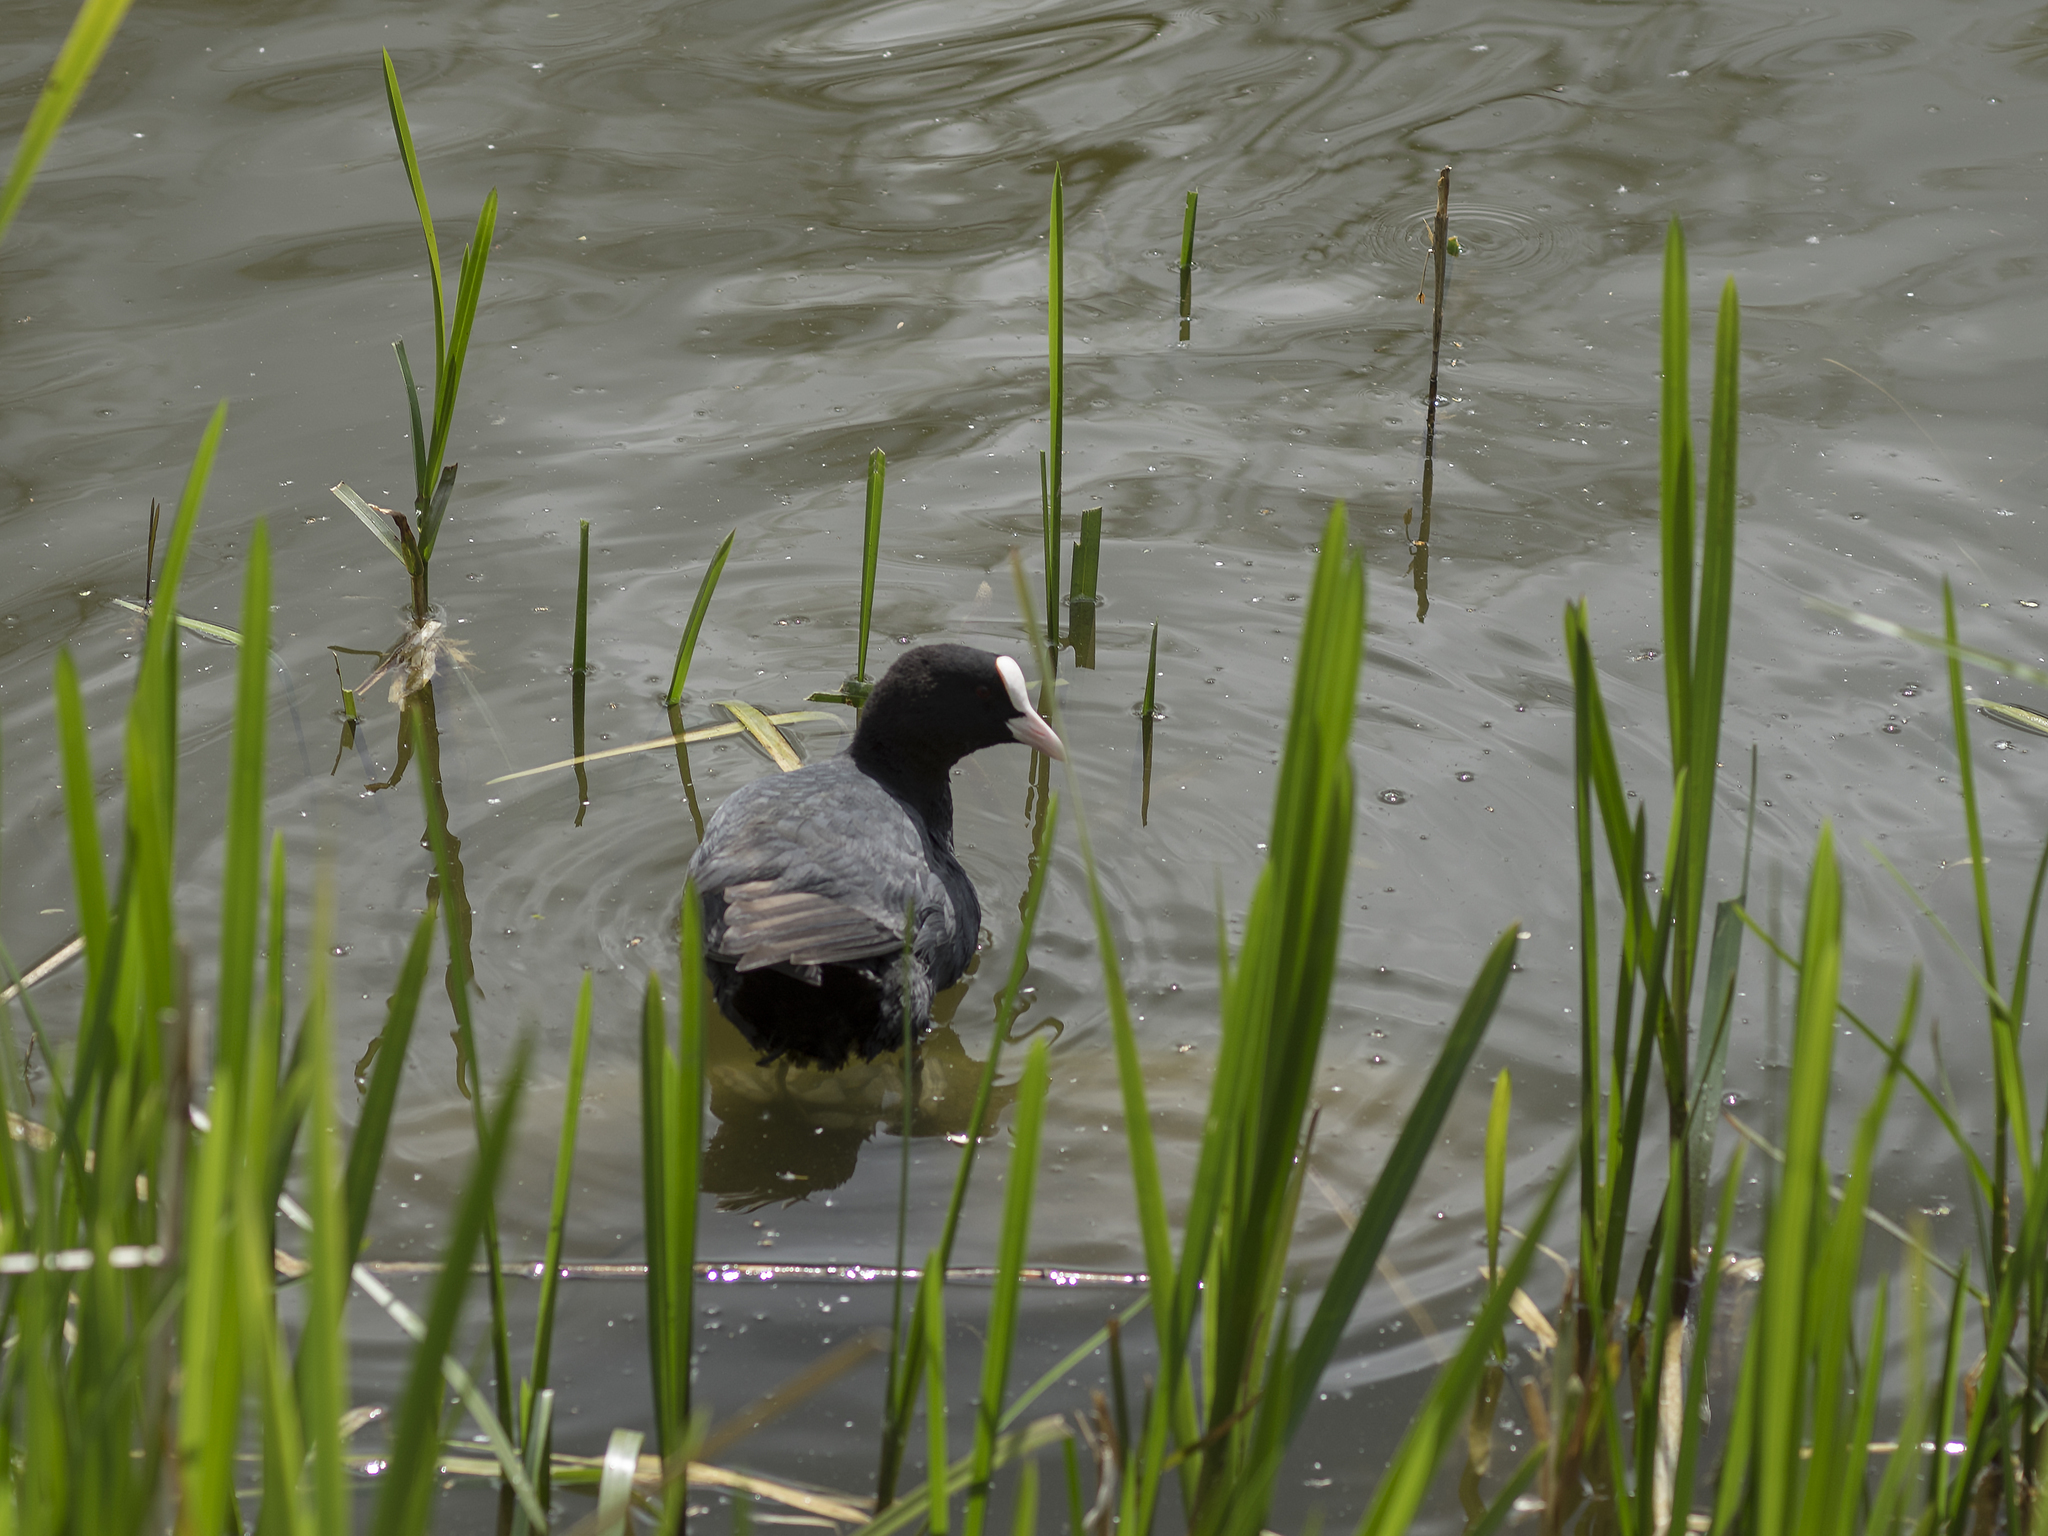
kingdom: Animalia
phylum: Chordata
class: Aves
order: Gruiformes
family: Rallidae
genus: Fulica
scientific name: Fulica atra
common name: Eurasian coot
